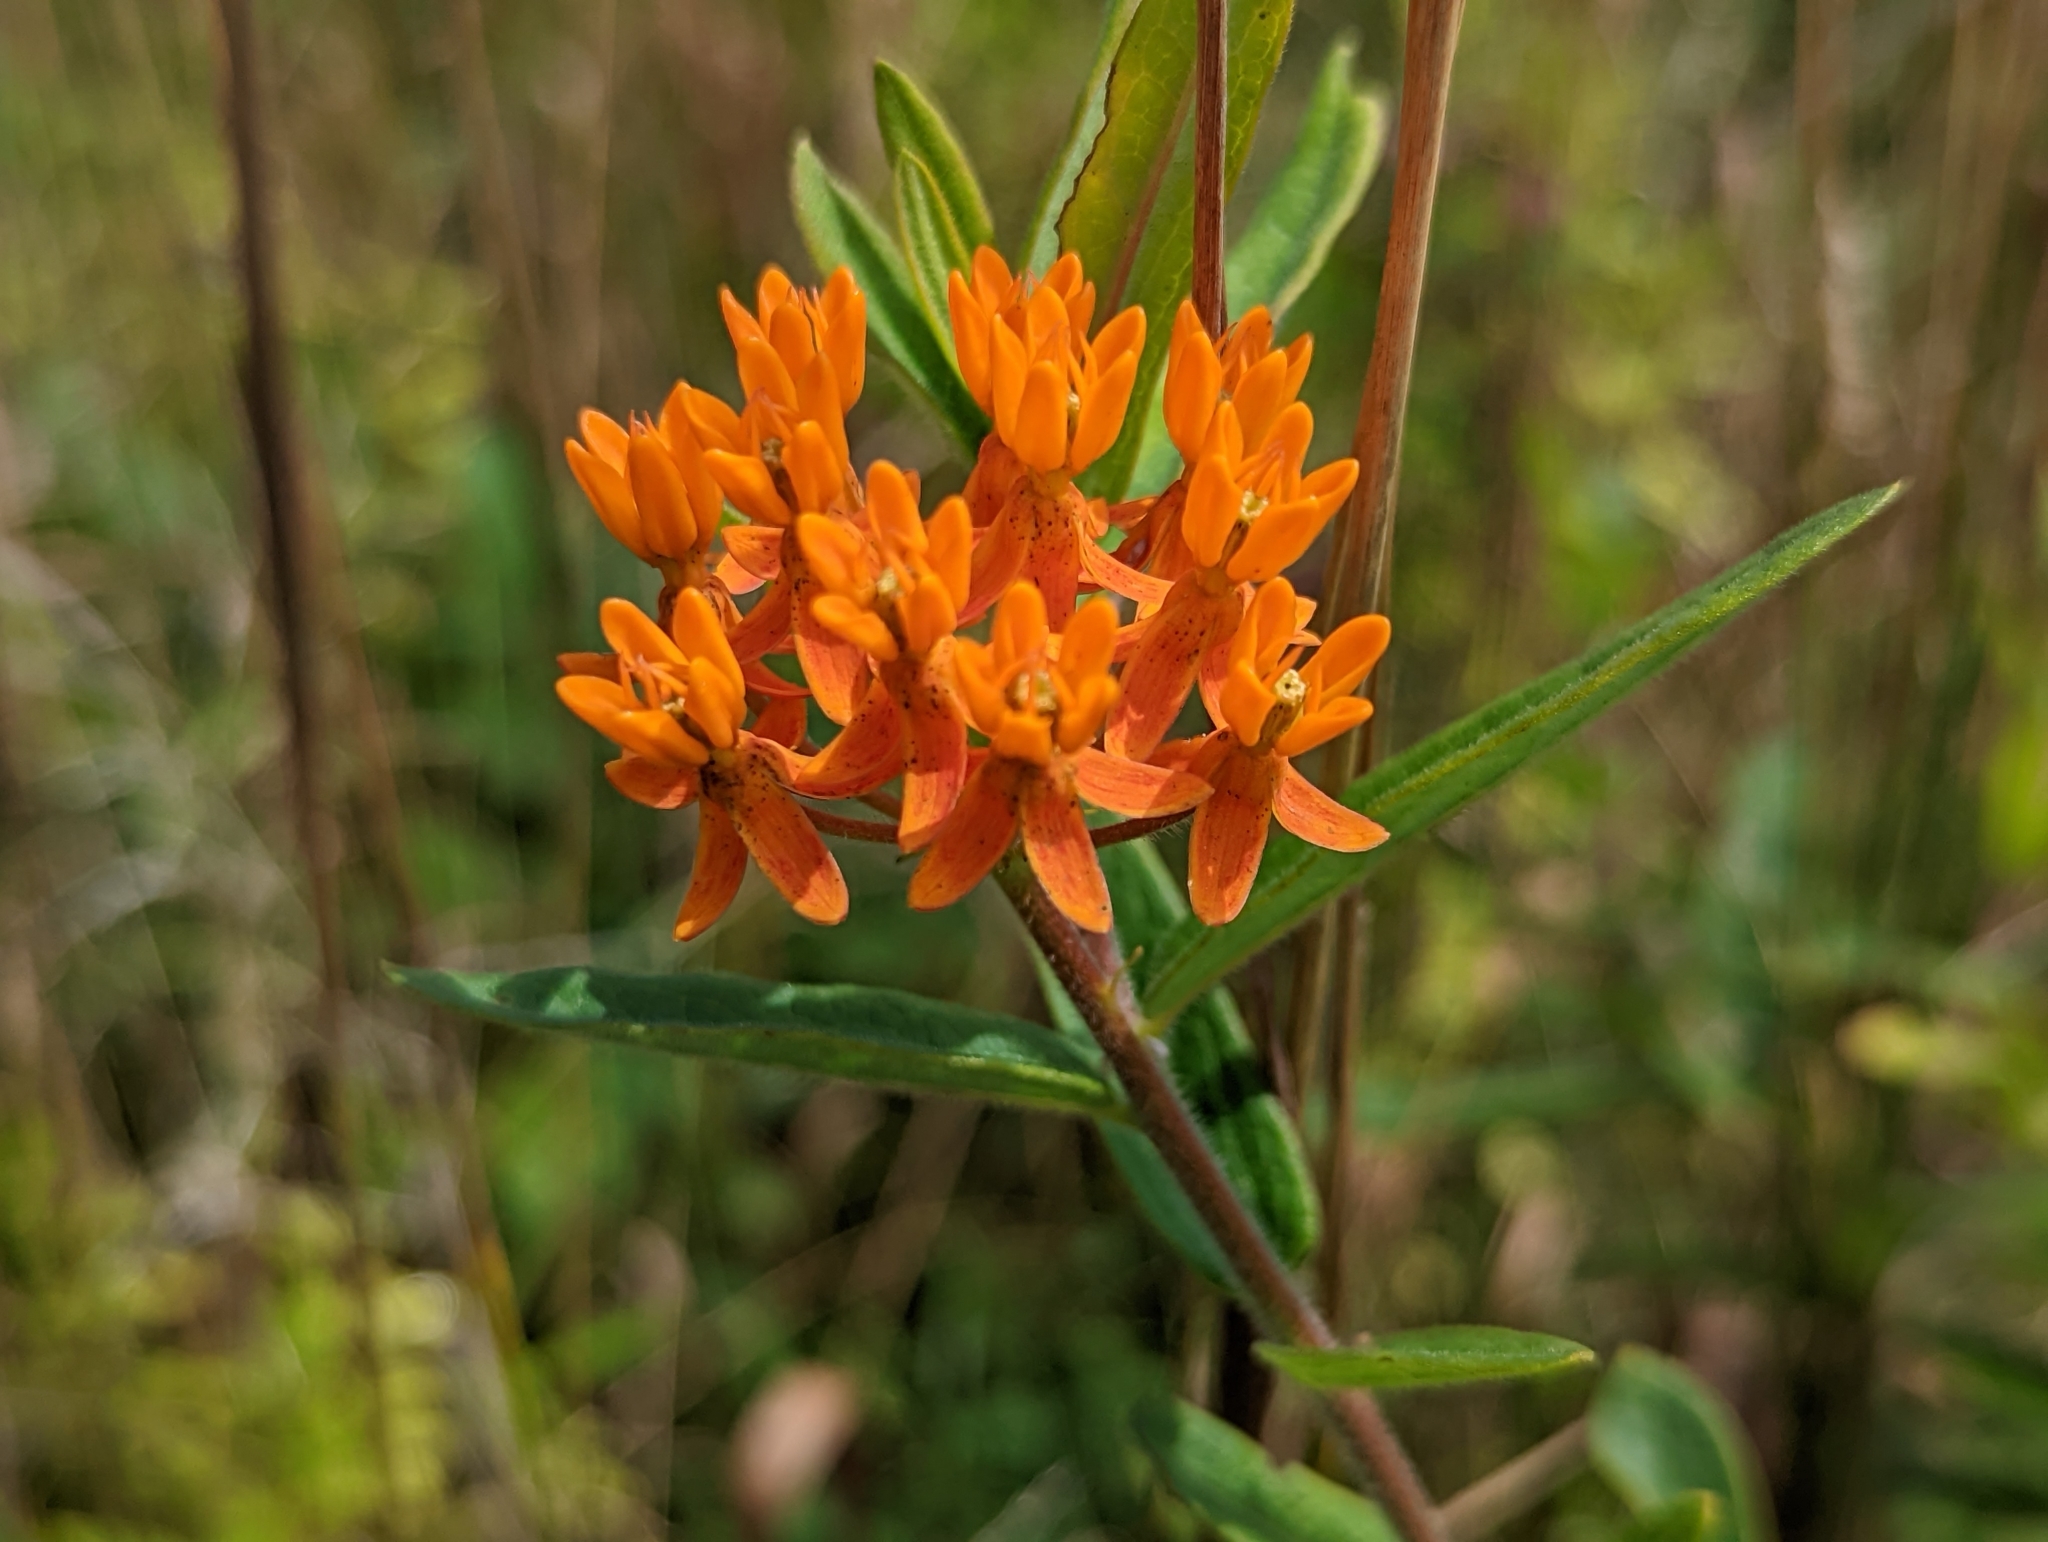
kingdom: Animalia
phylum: Arthropoda
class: Insecta
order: Lepidoptera
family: Nymphalidae
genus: Danaus
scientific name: Danaus plexippus
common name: Monarch
